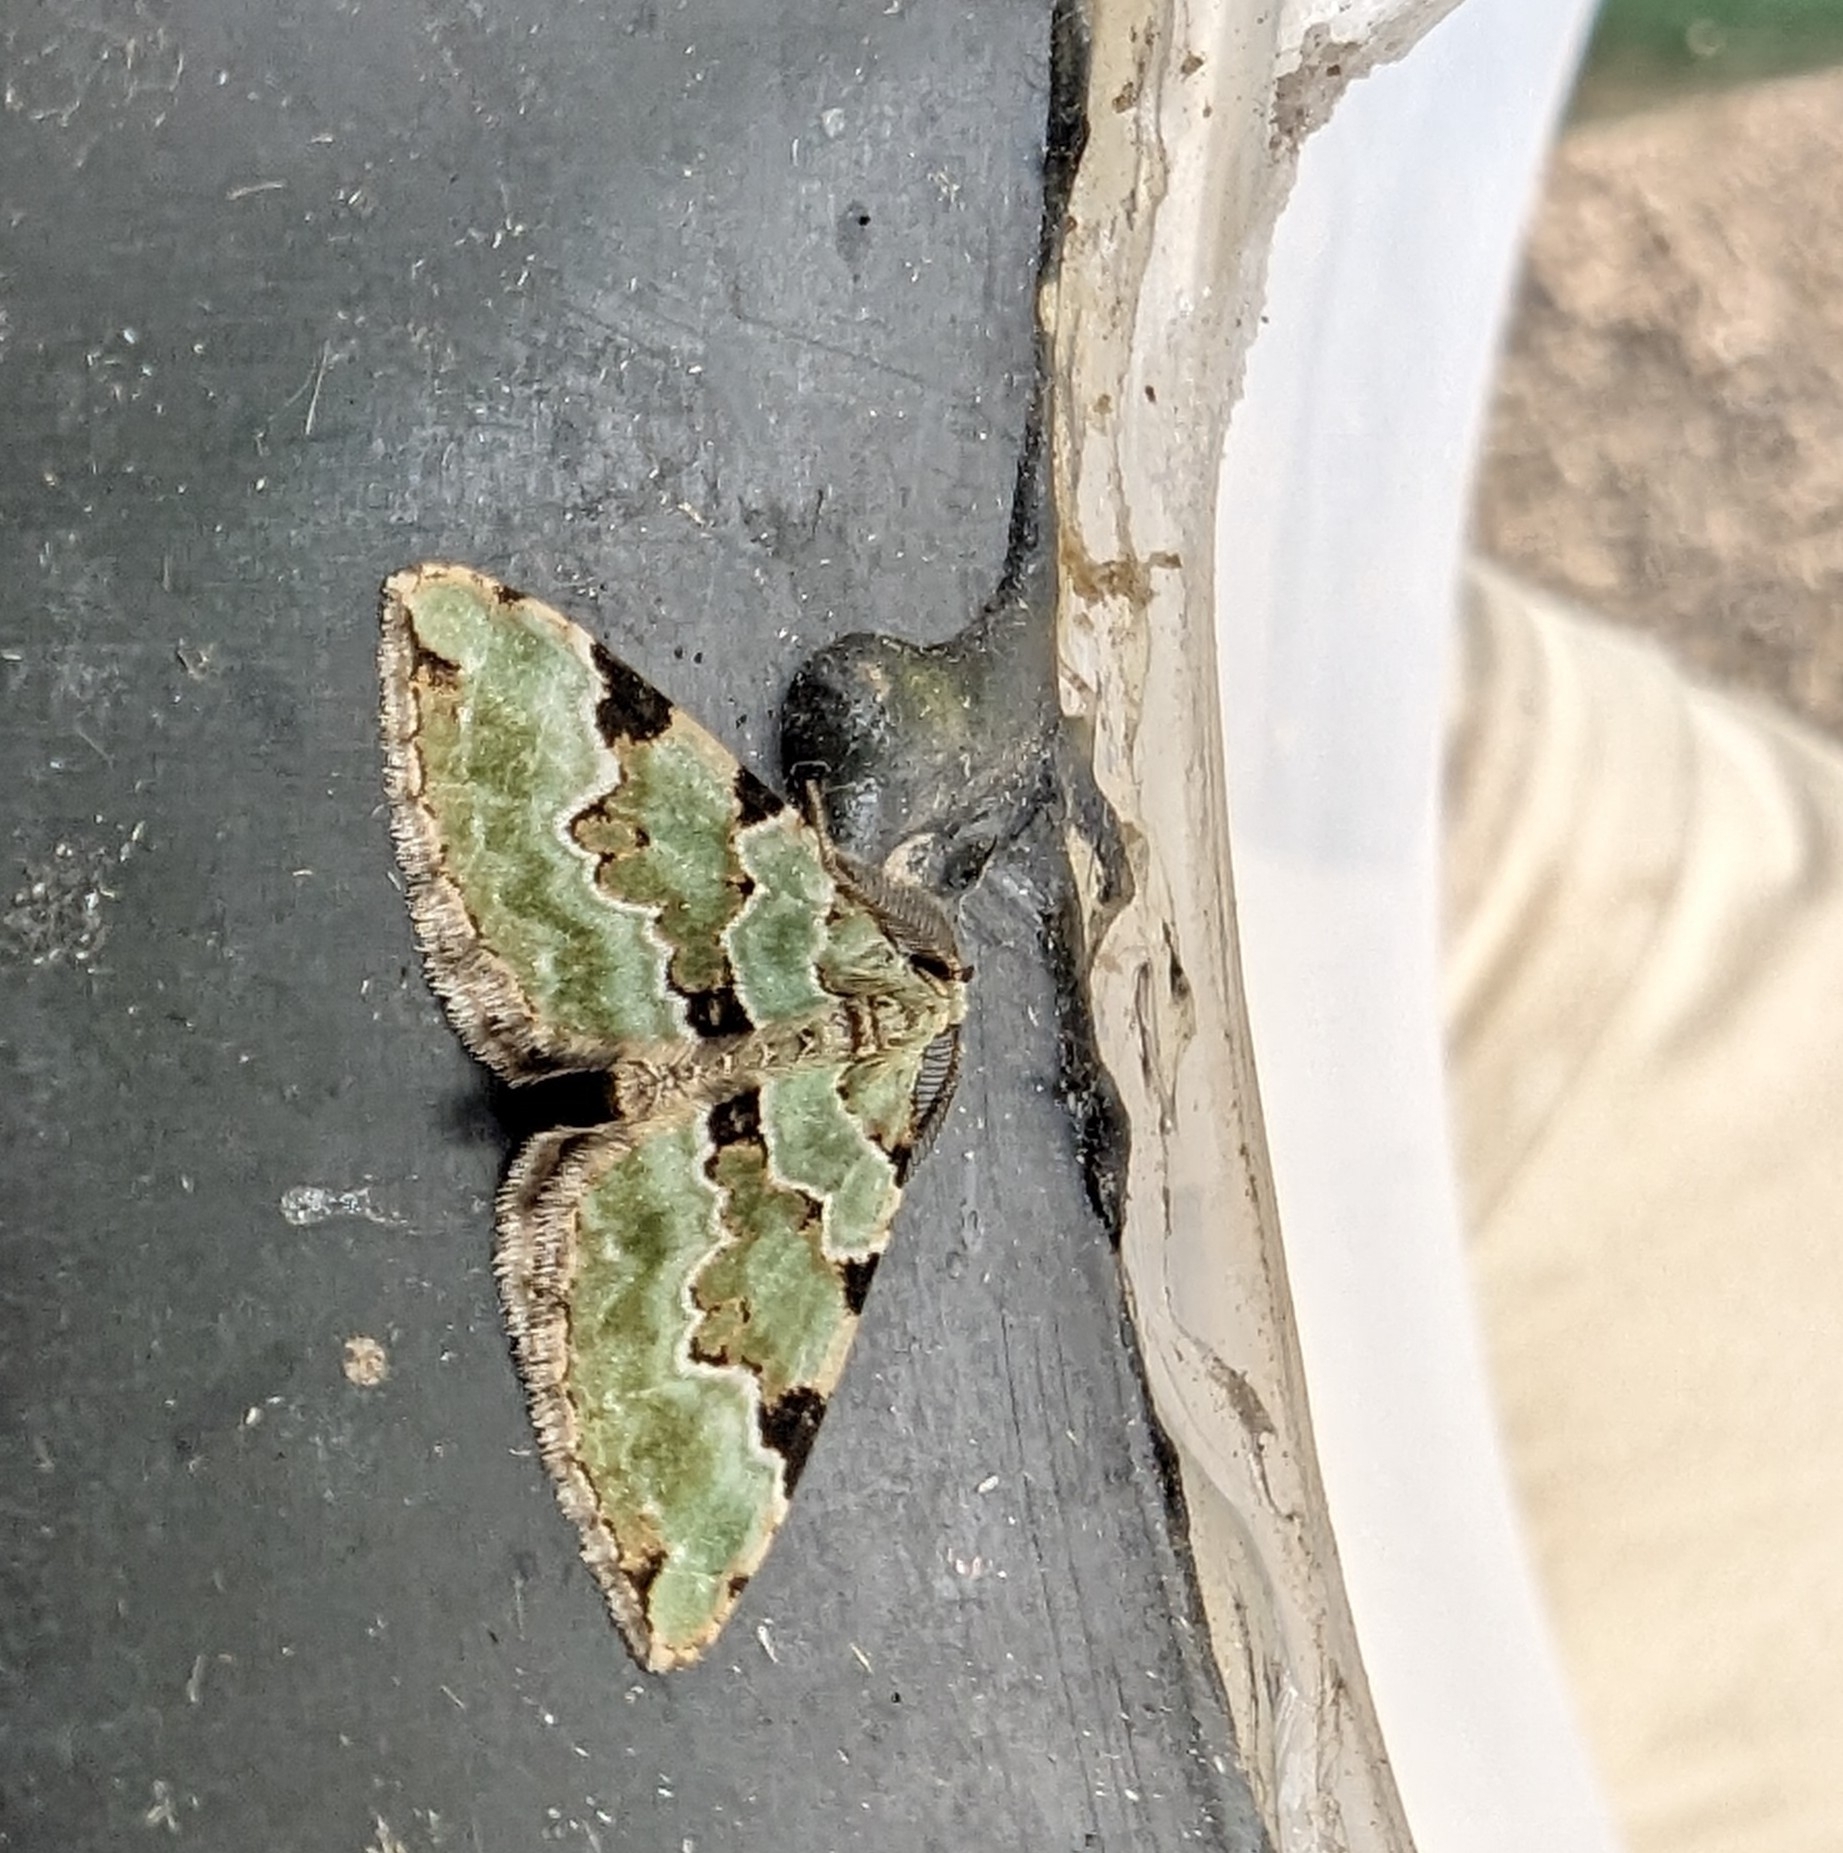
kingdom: Animalia
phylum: Arthropoda
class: Insecta
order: Lepidoptera
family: Geometridae
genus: Colostygia
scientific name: Colostygia pectinataria
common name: Green carpet
